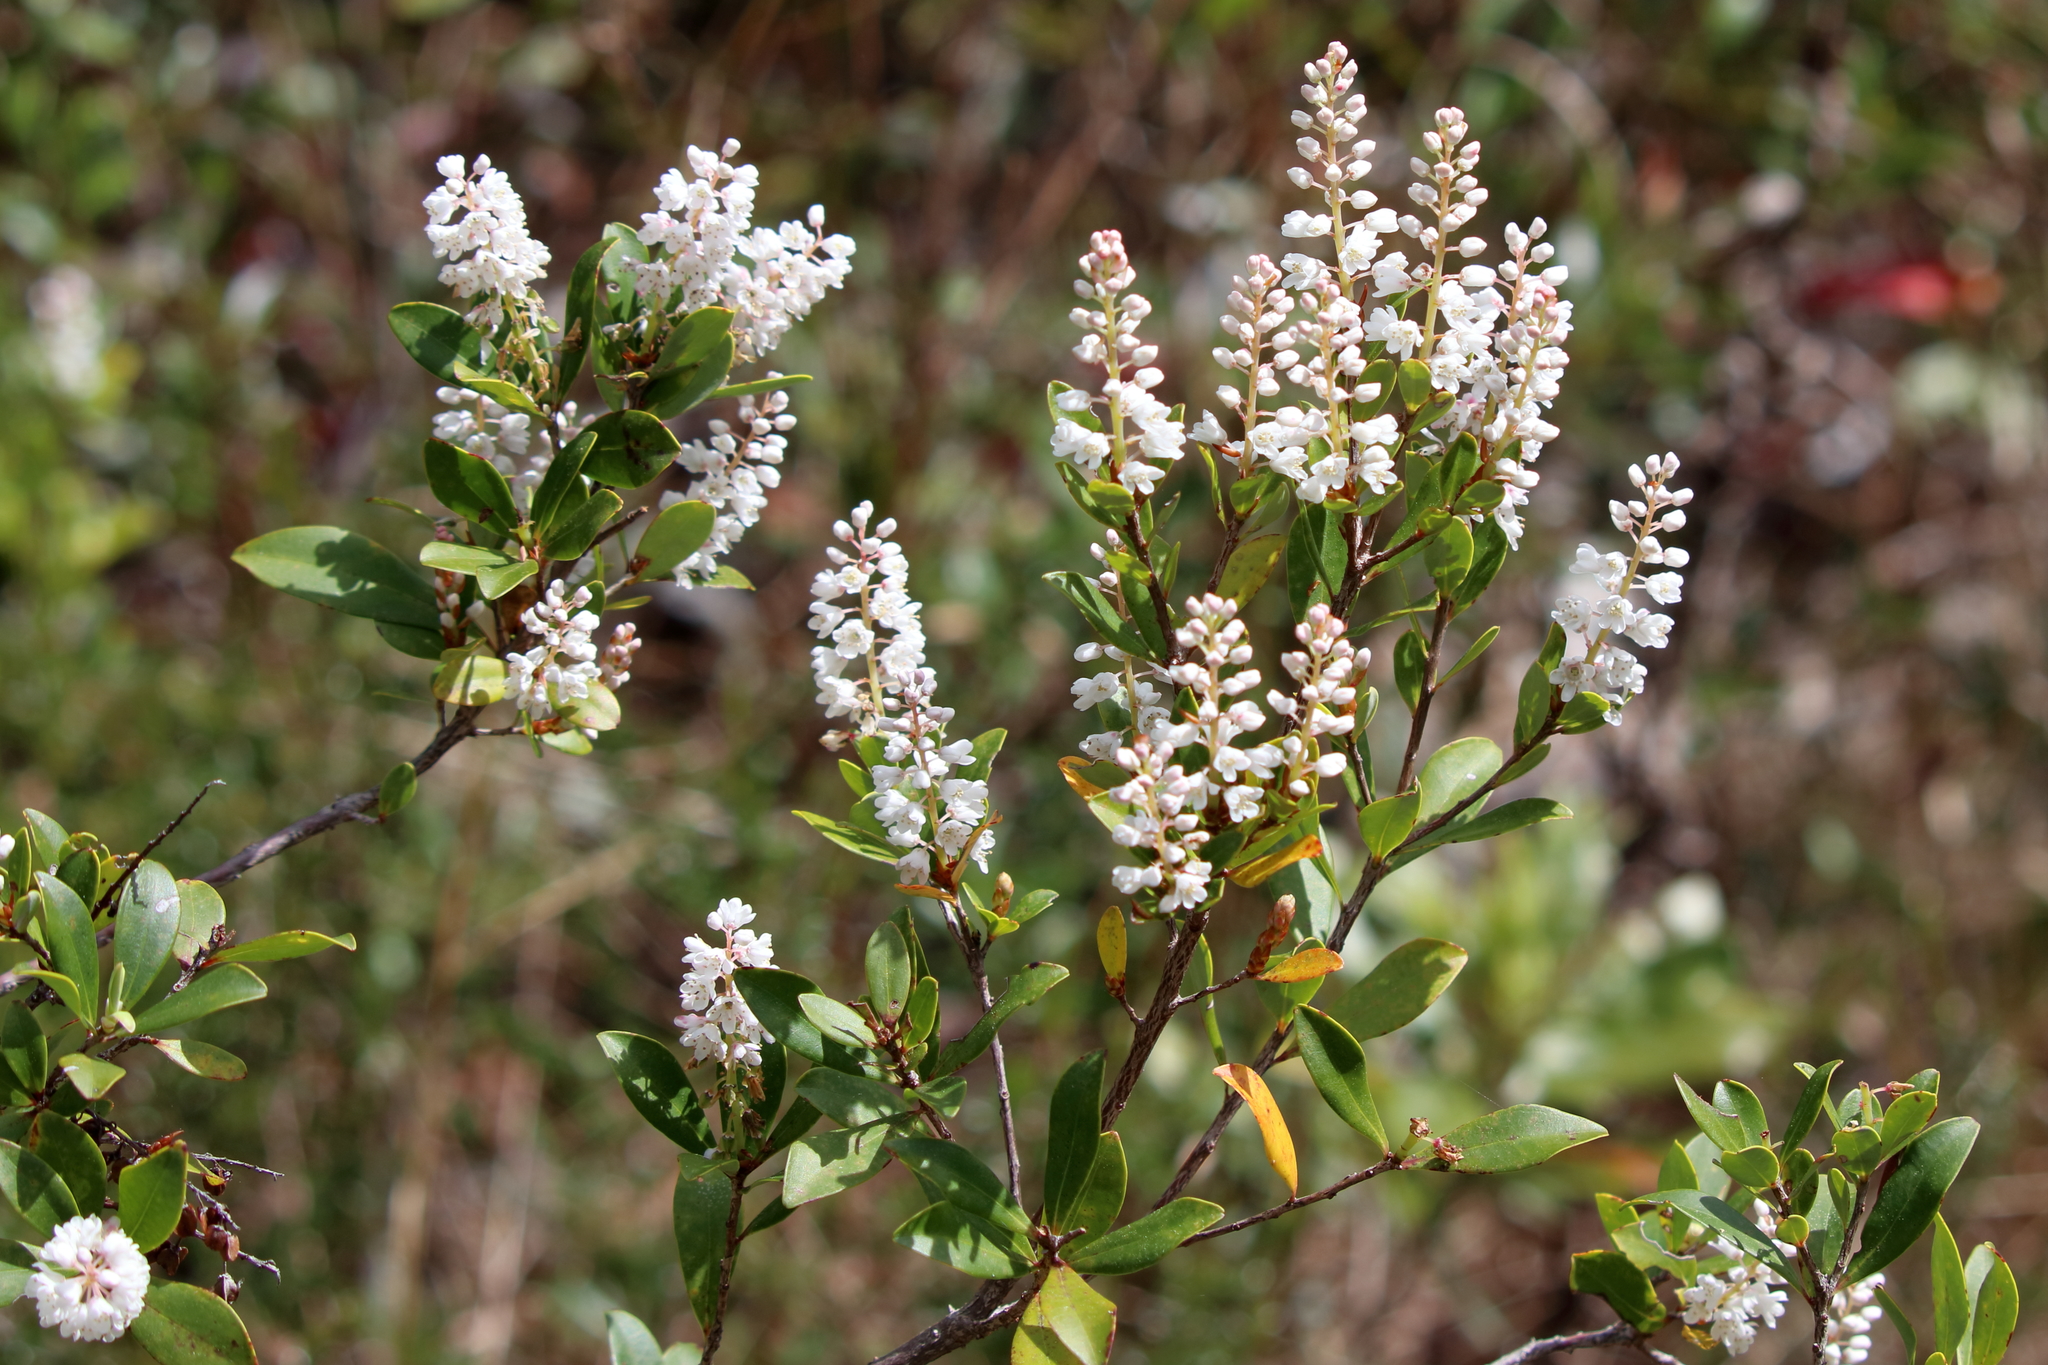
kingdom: Plantae
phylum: Tracheophyta
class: Magnoliopsida
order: Ericales
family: Cyrillaceae
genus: Cliftonia
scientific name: Cliftonia monophylla
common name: Titi
